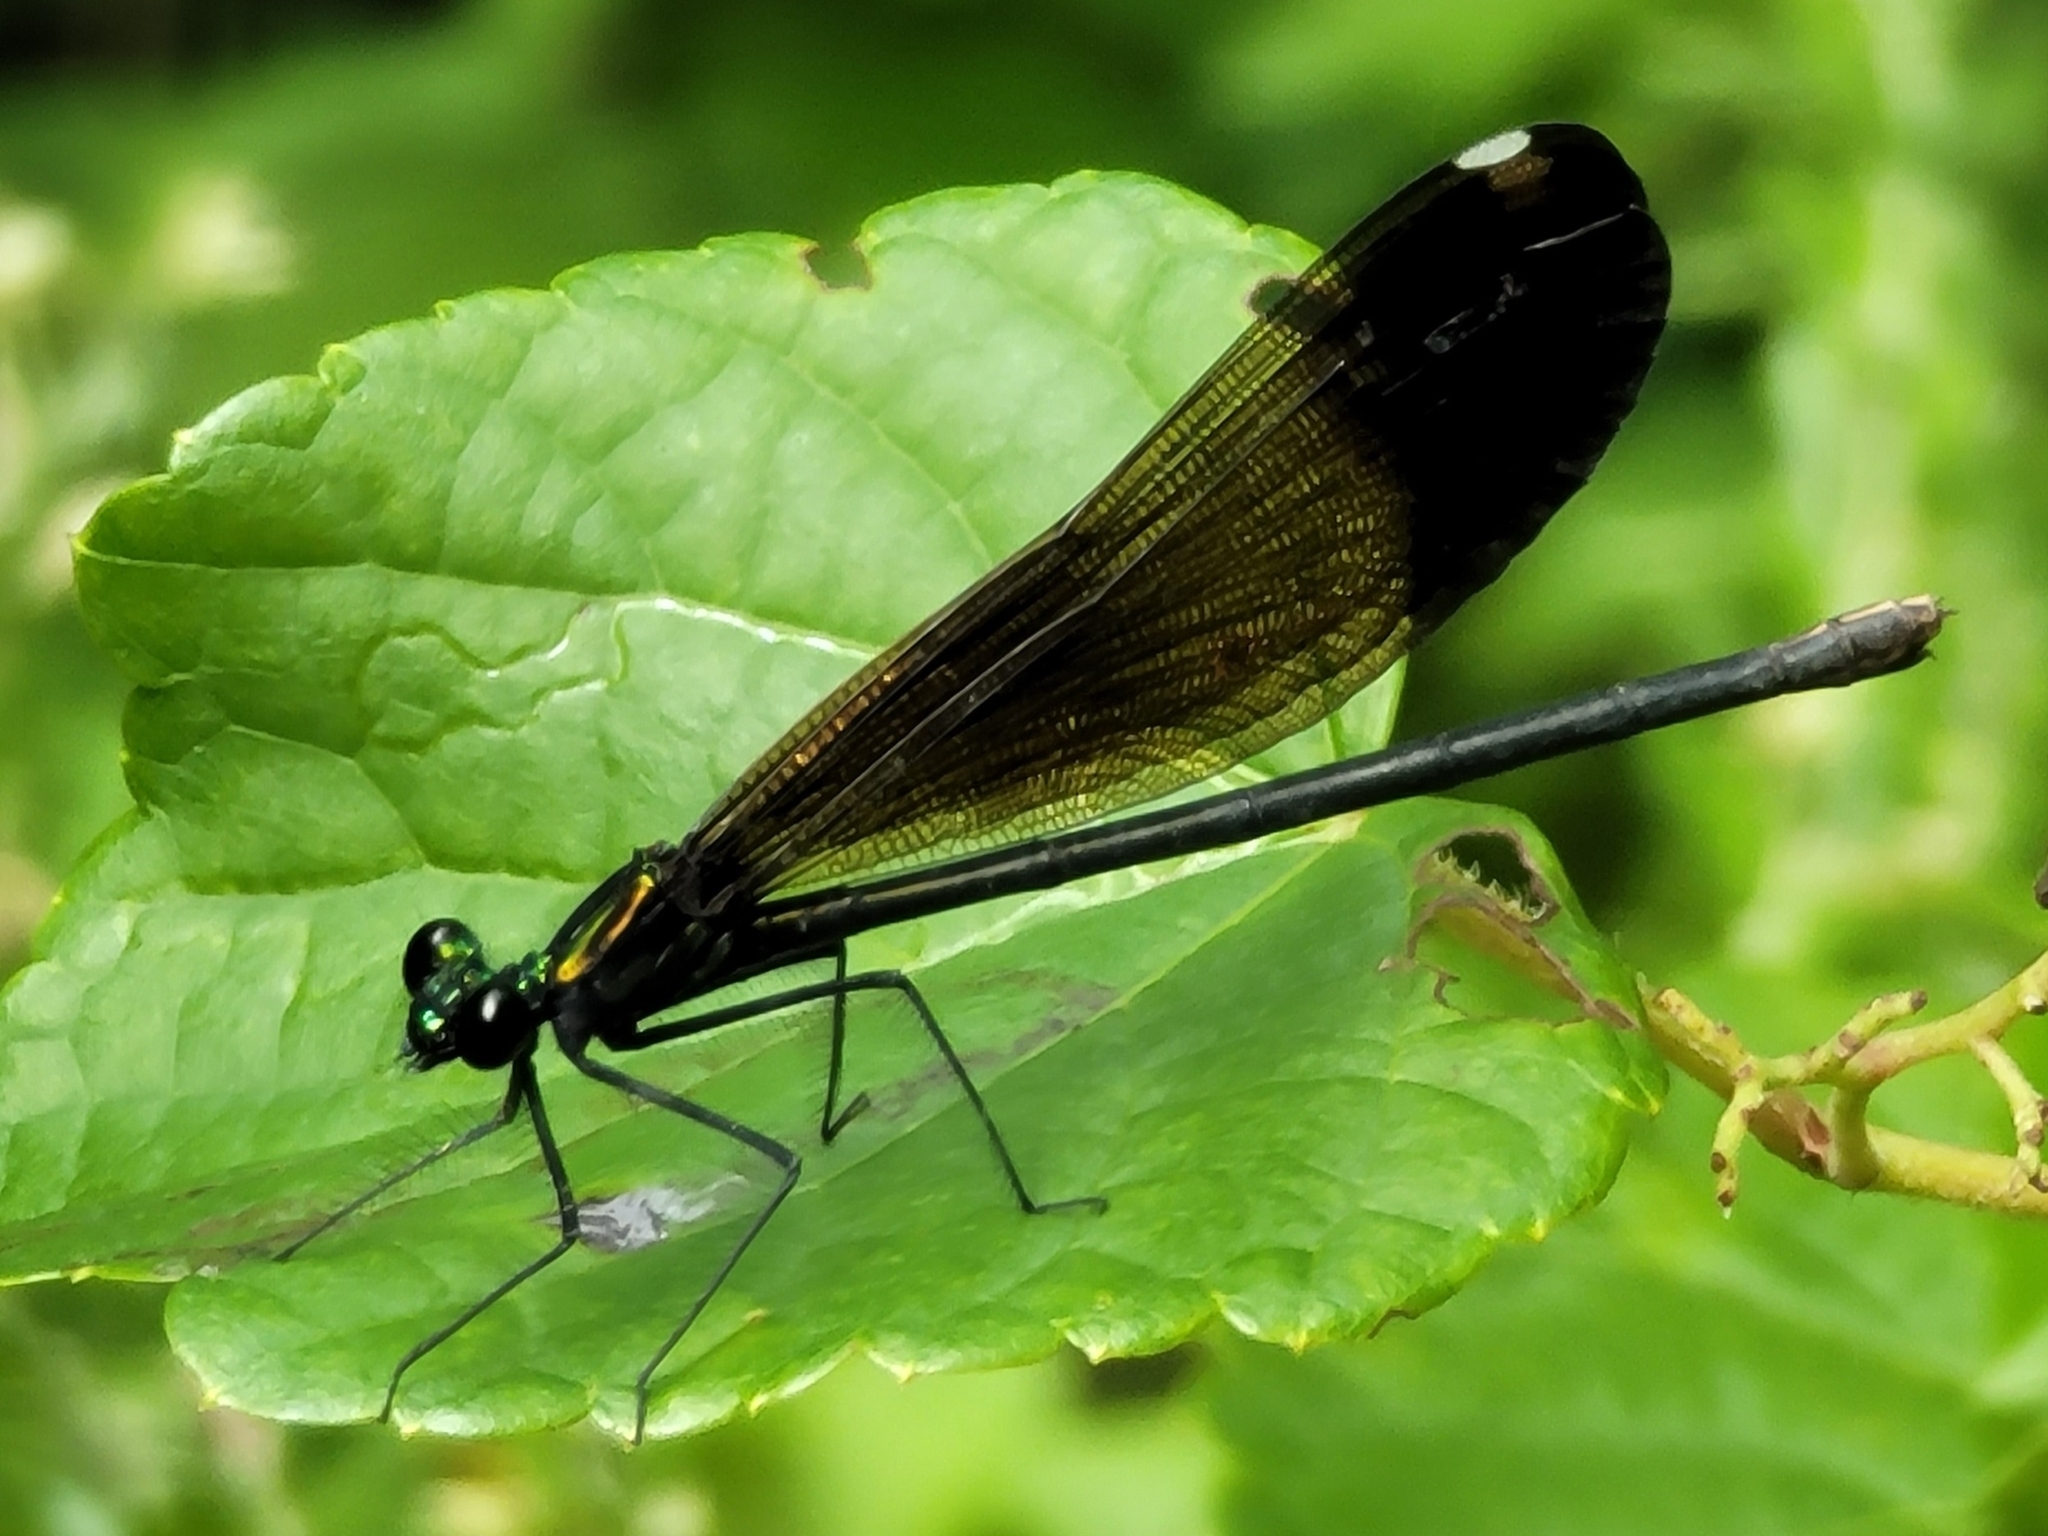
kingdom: Animalia
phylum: Arthropoda
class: Insecta
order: Odonata
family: Calopterygidae
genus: Calopteryx
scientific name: Calopteryx maculata
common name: Ebony jewelwing
